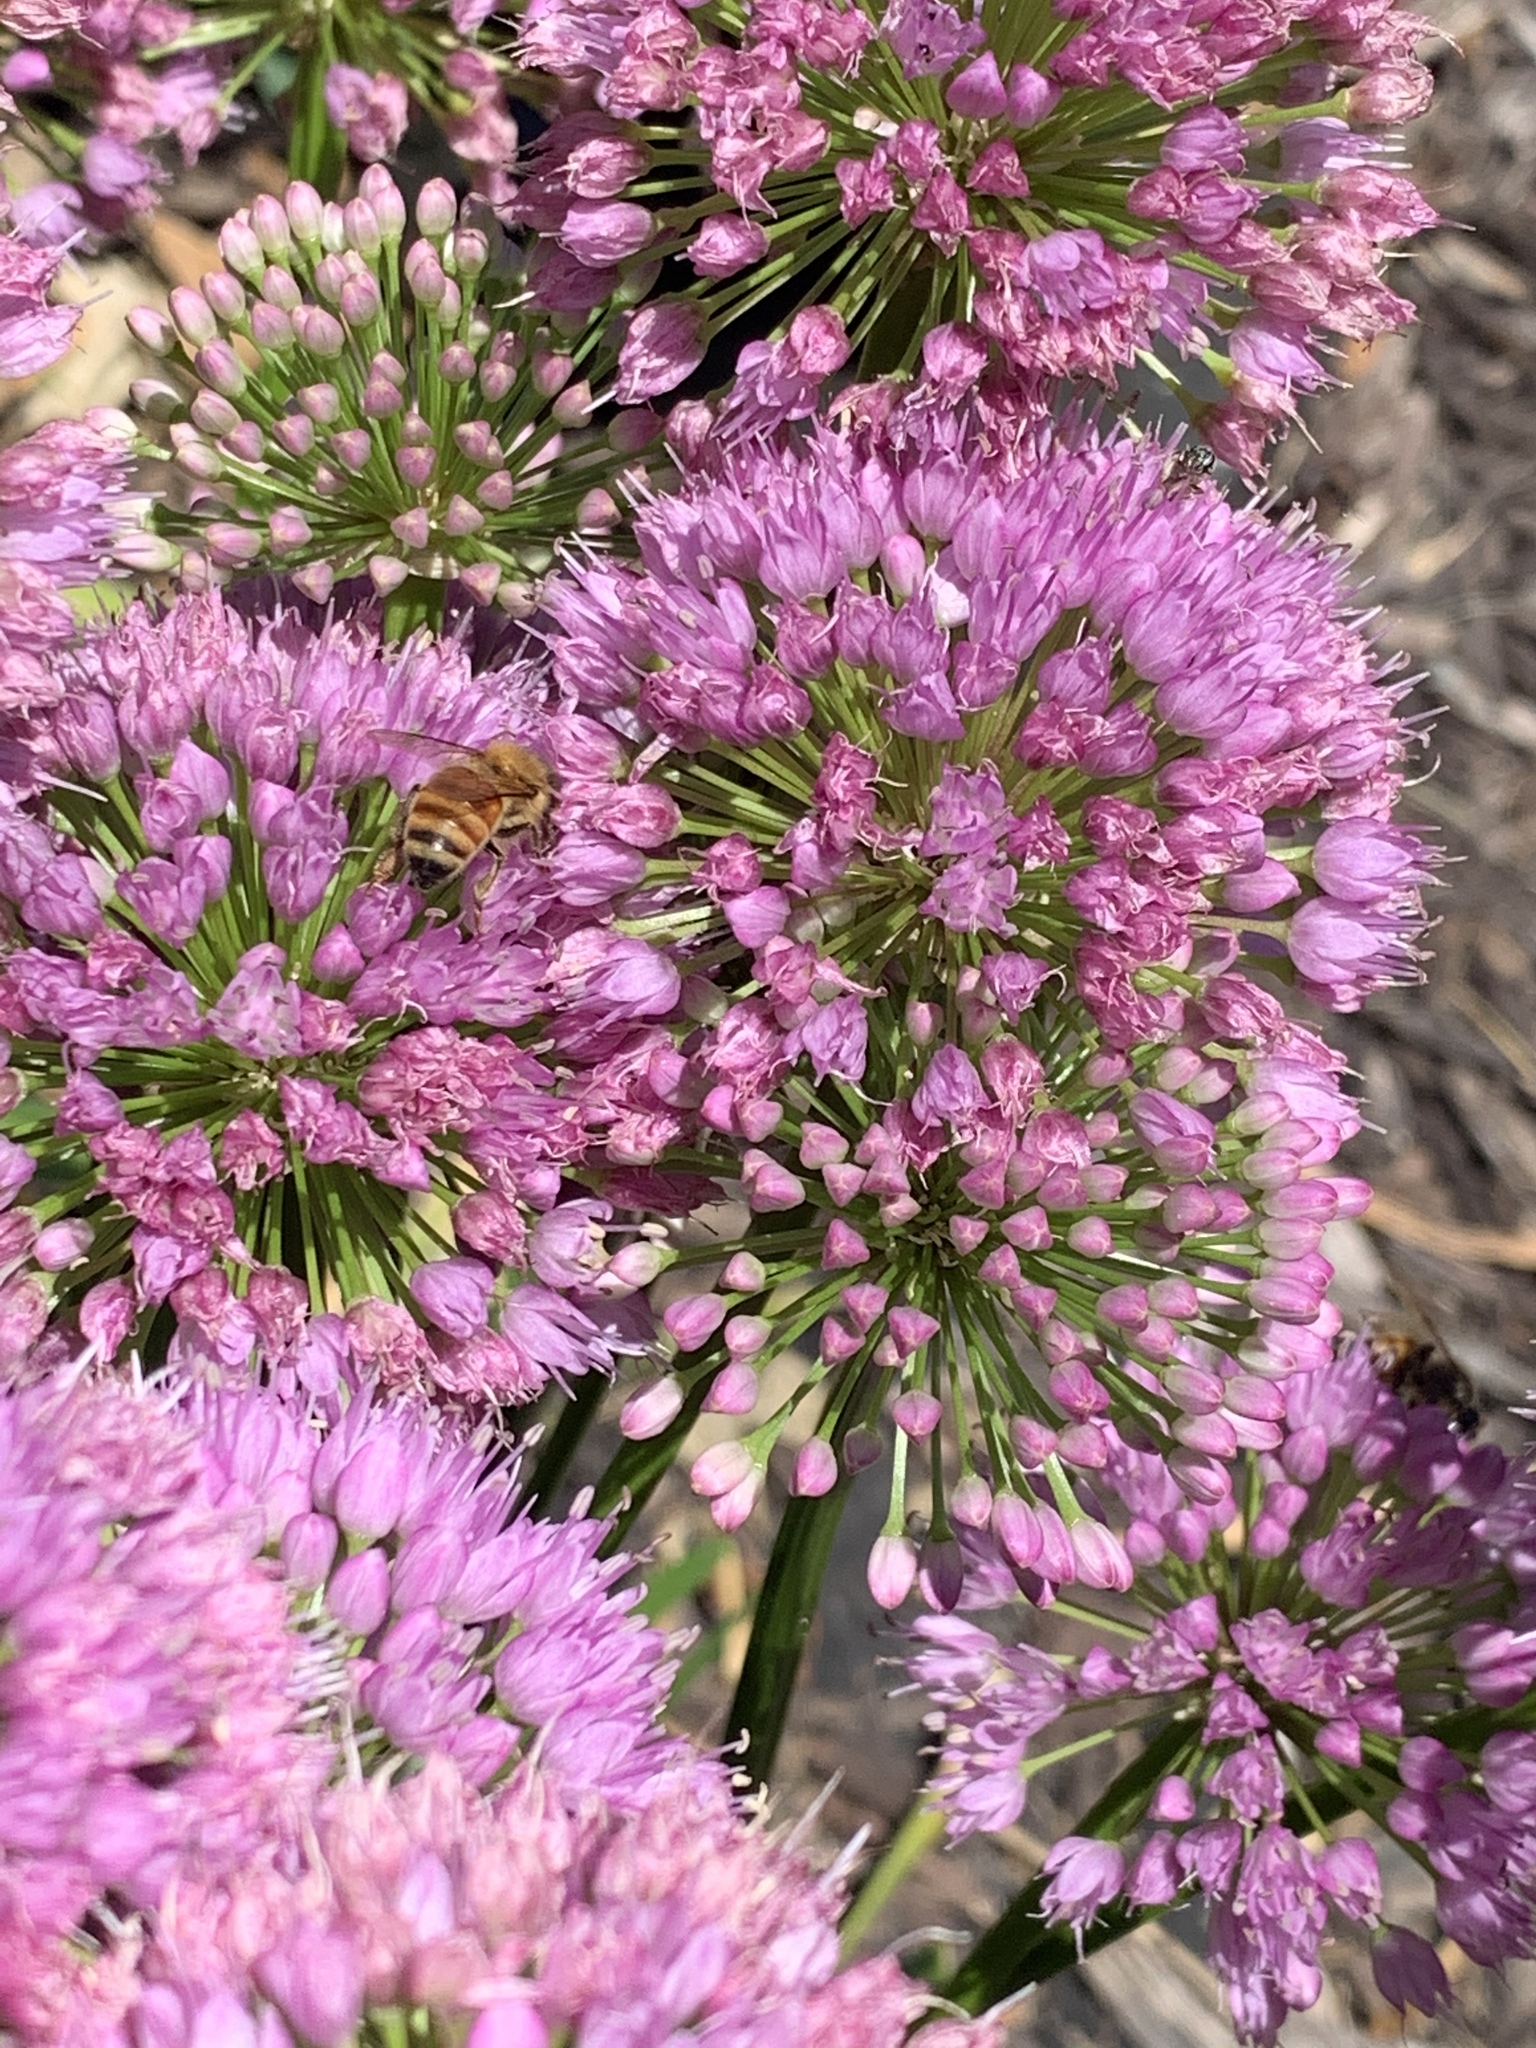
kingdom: Animalia
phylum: Arthropoda
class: Insecta
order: Hymenoptera
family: Apidae
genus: Apis
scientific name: Apis mellifera
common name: Honey bee
